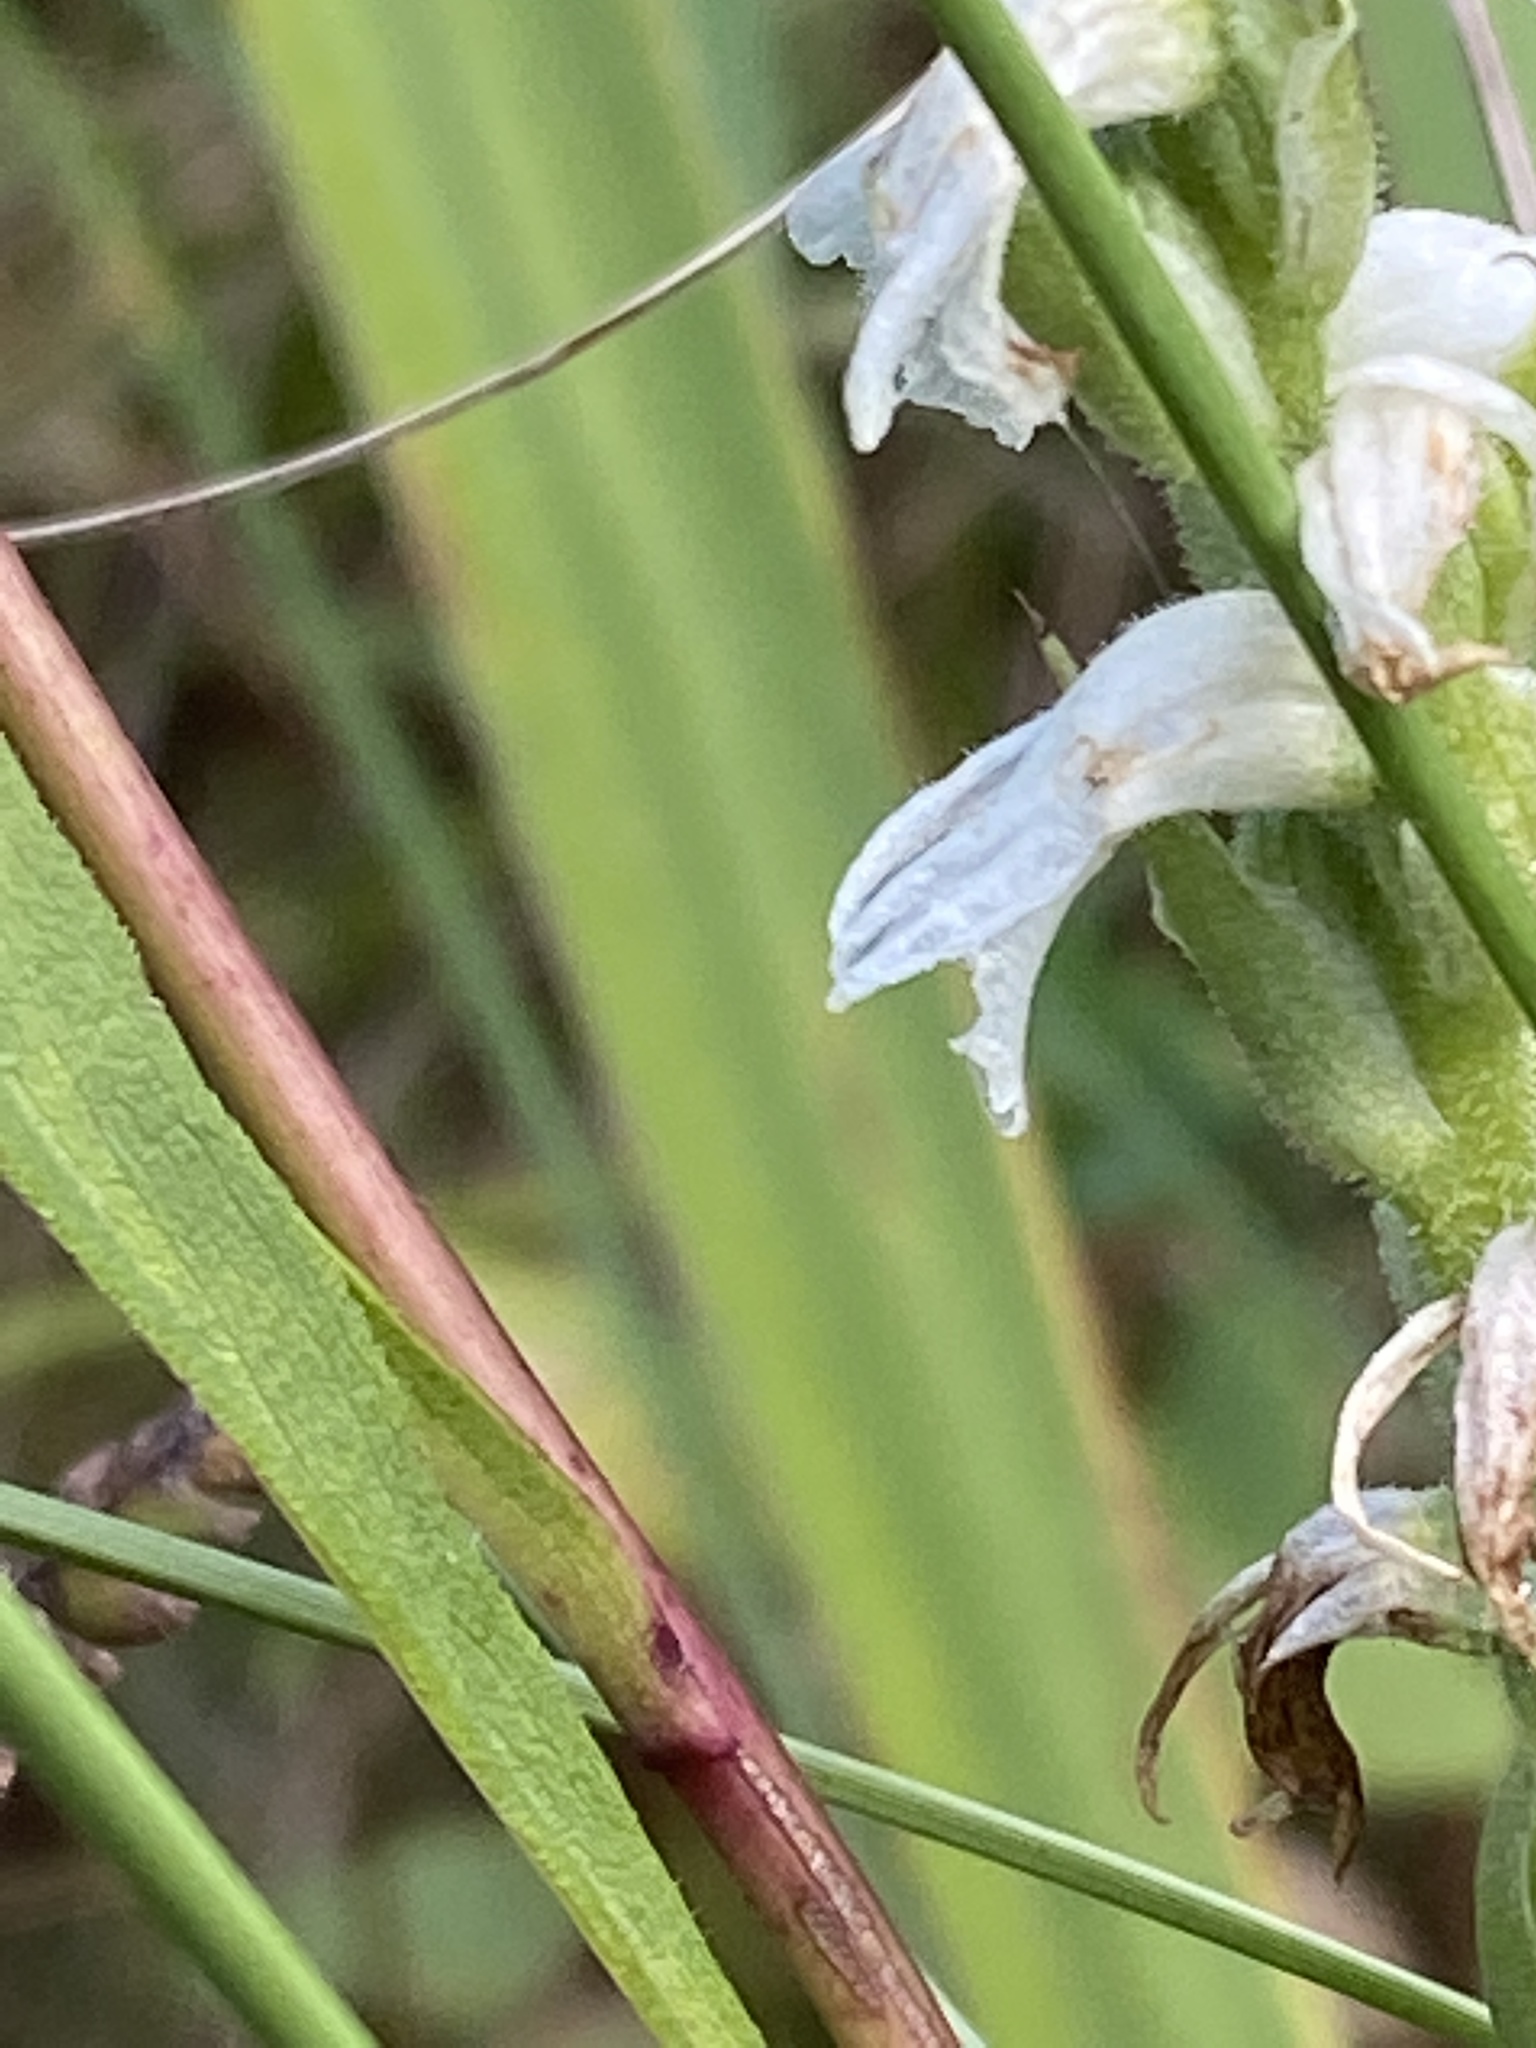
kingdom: Plantae
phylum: Tracheophyta
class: Liliopsida
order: Asparagales
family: Orchidaceae
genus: Spiranthes
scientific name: Spiranthes incurva
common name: Sphinx ladies'-tresses
